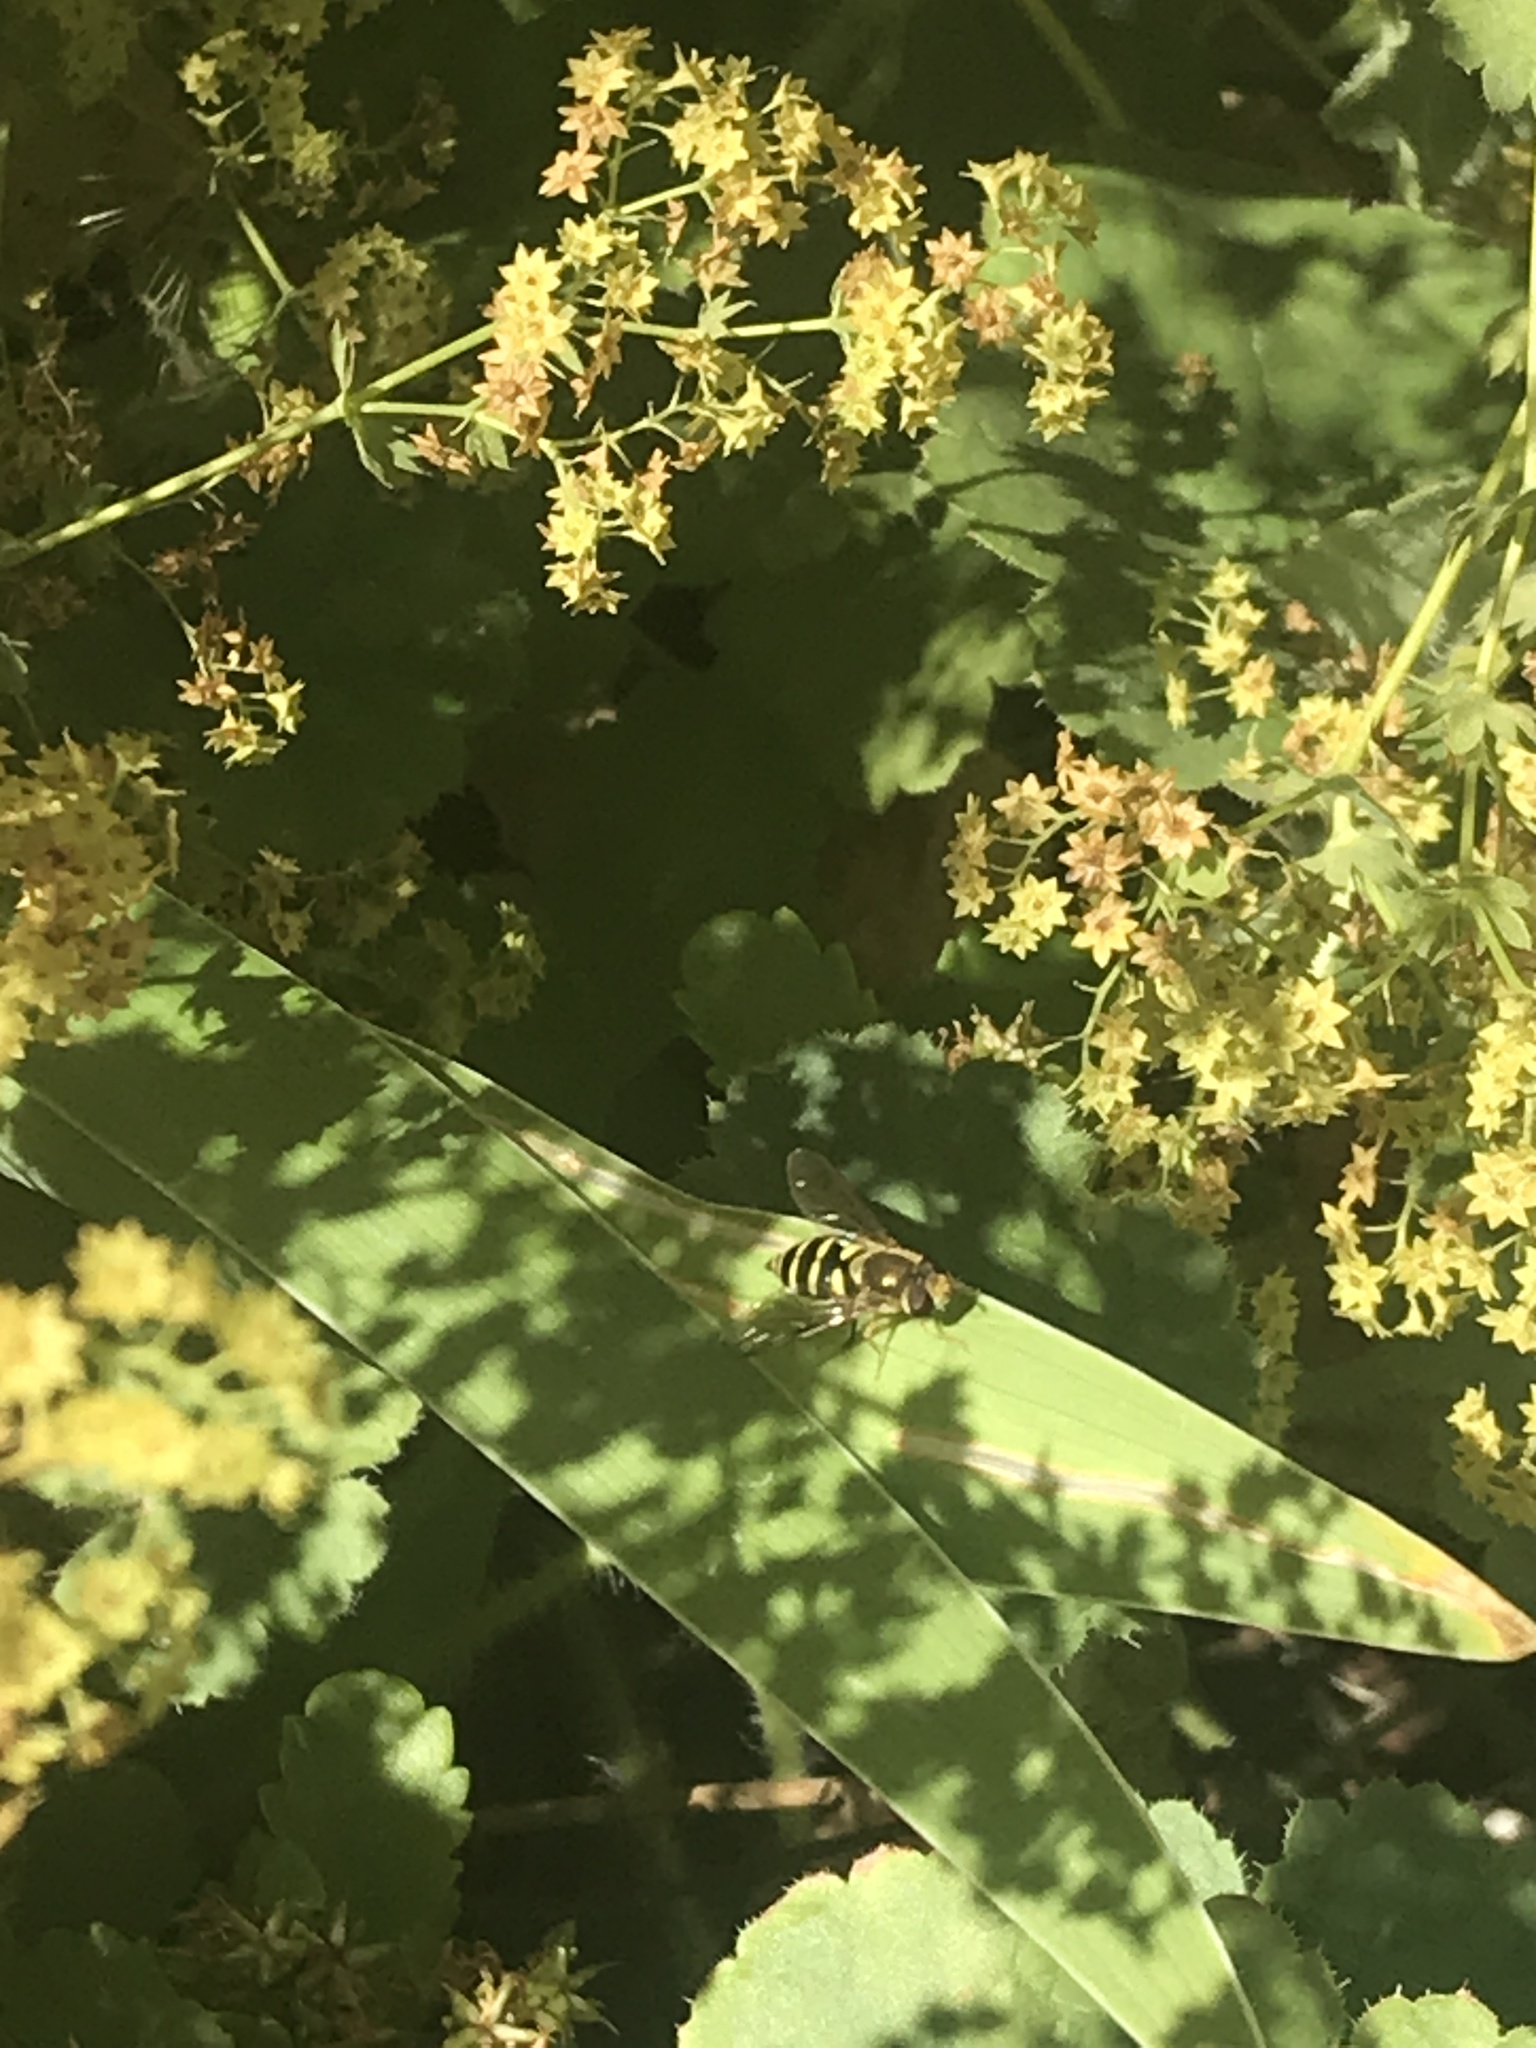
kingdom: Animalia
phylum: Arthropoda
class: Insecta
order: Diptera
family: Syrphidae
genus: Syrphus
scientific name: Syrphus opinator
